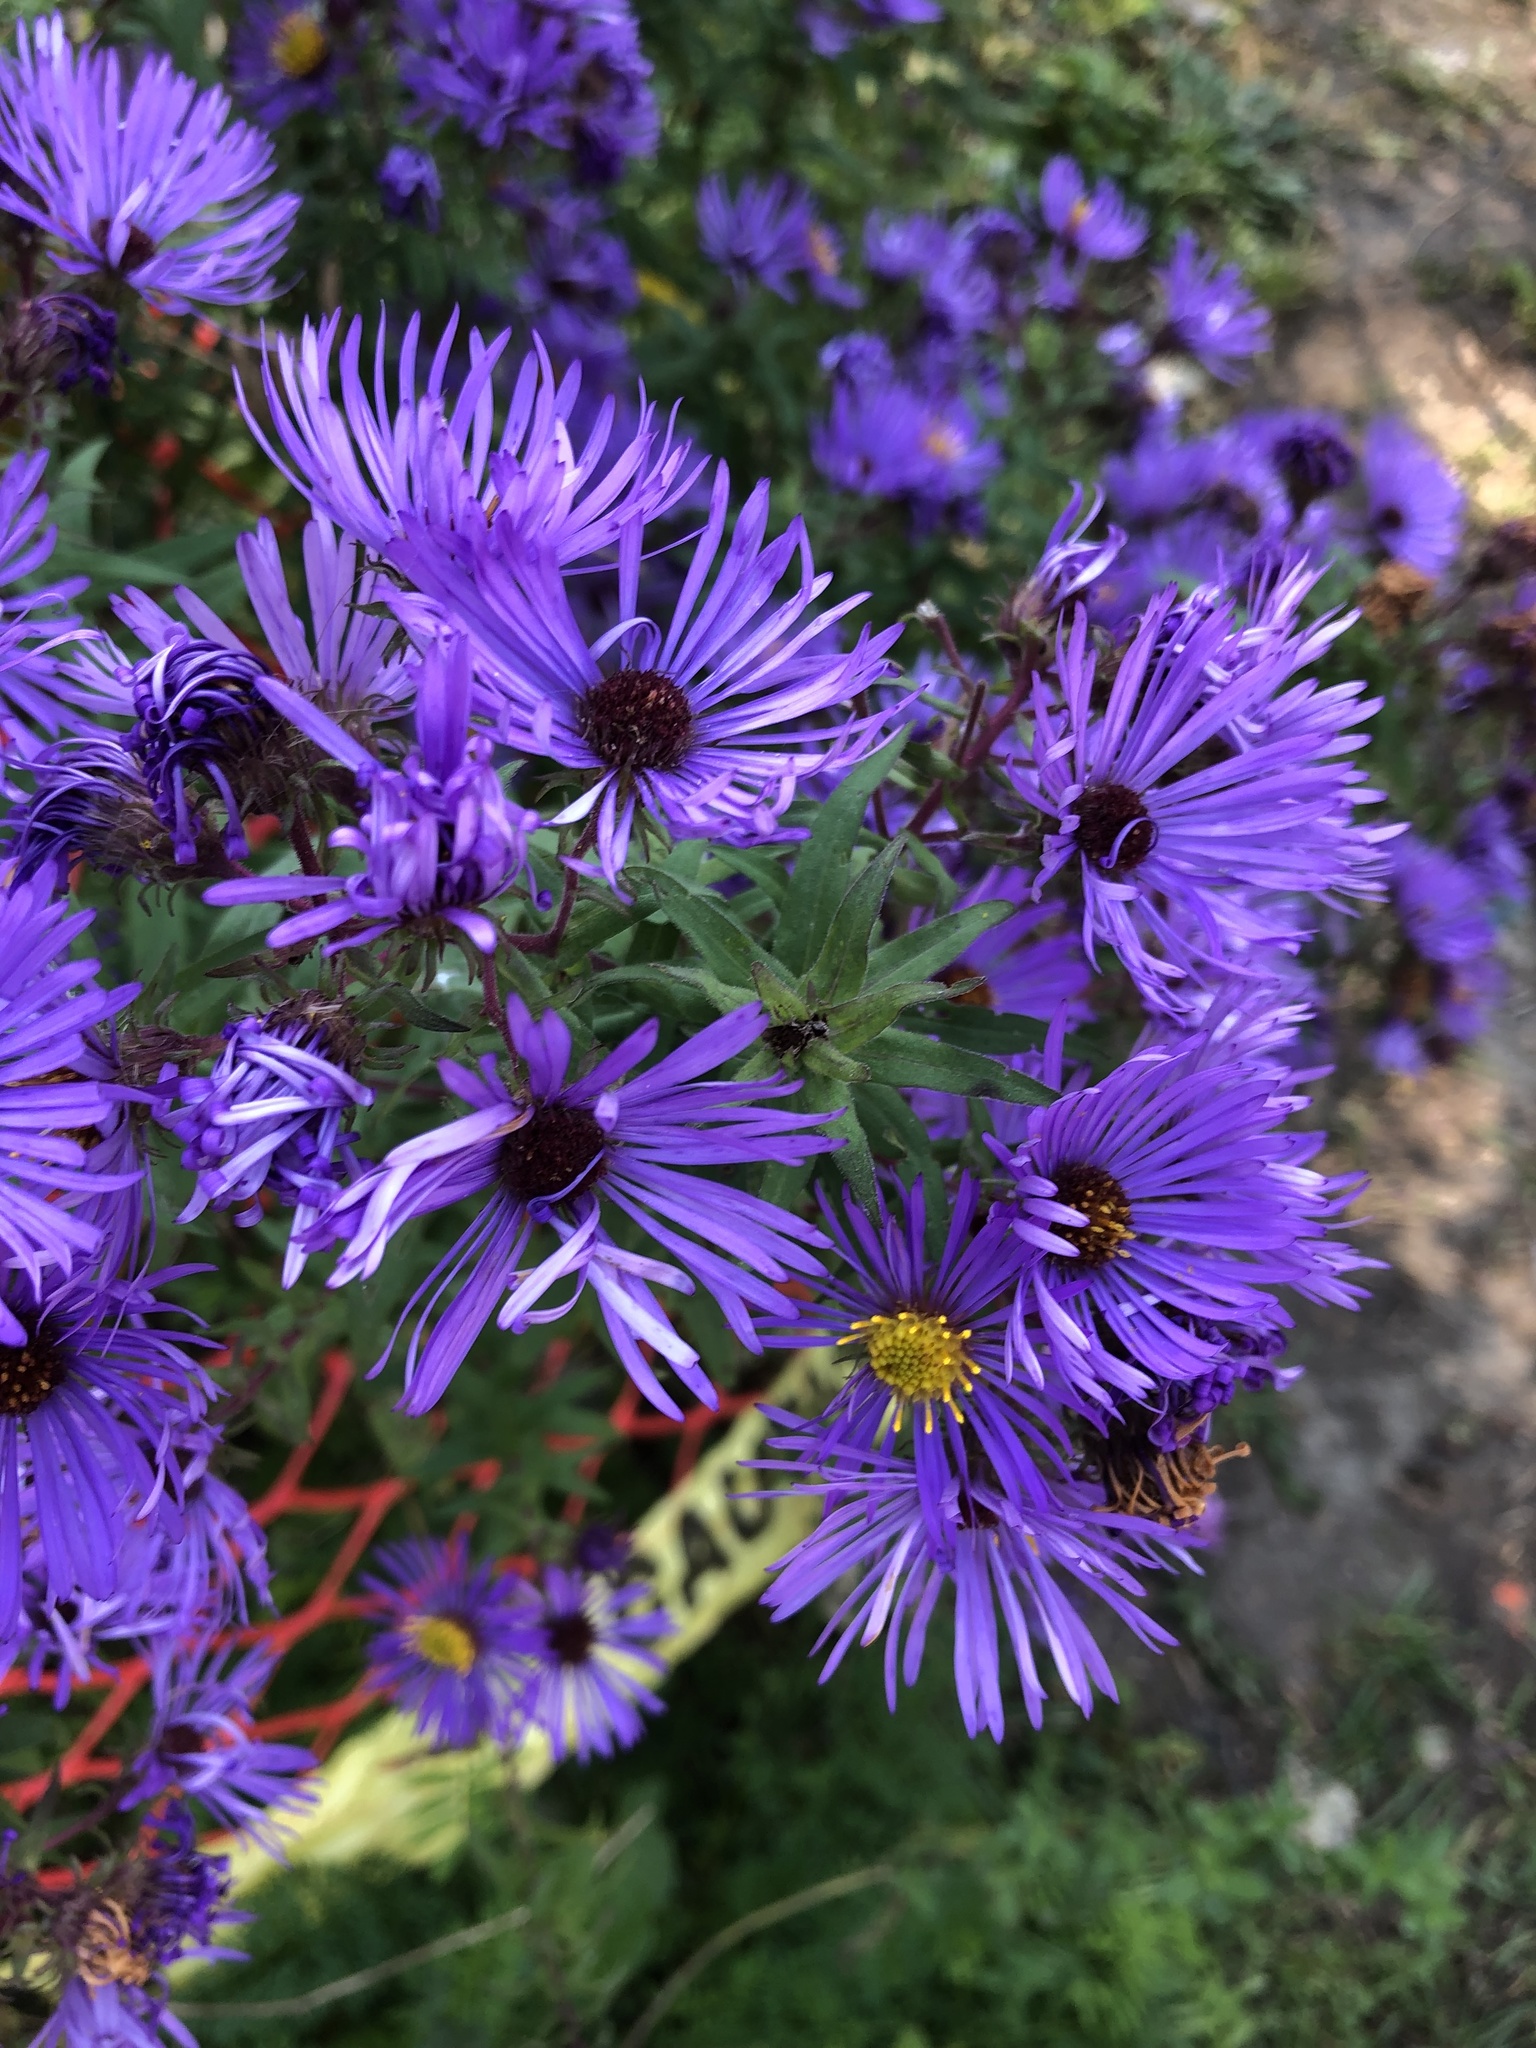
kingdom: Plantae
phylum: Tracheophyta
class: Magnoliopsida
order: Asterales
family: Asteraceae
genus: Symphyotrichum
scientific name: Symphyotrichum novae-angliae
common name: Michaelmas daisy
